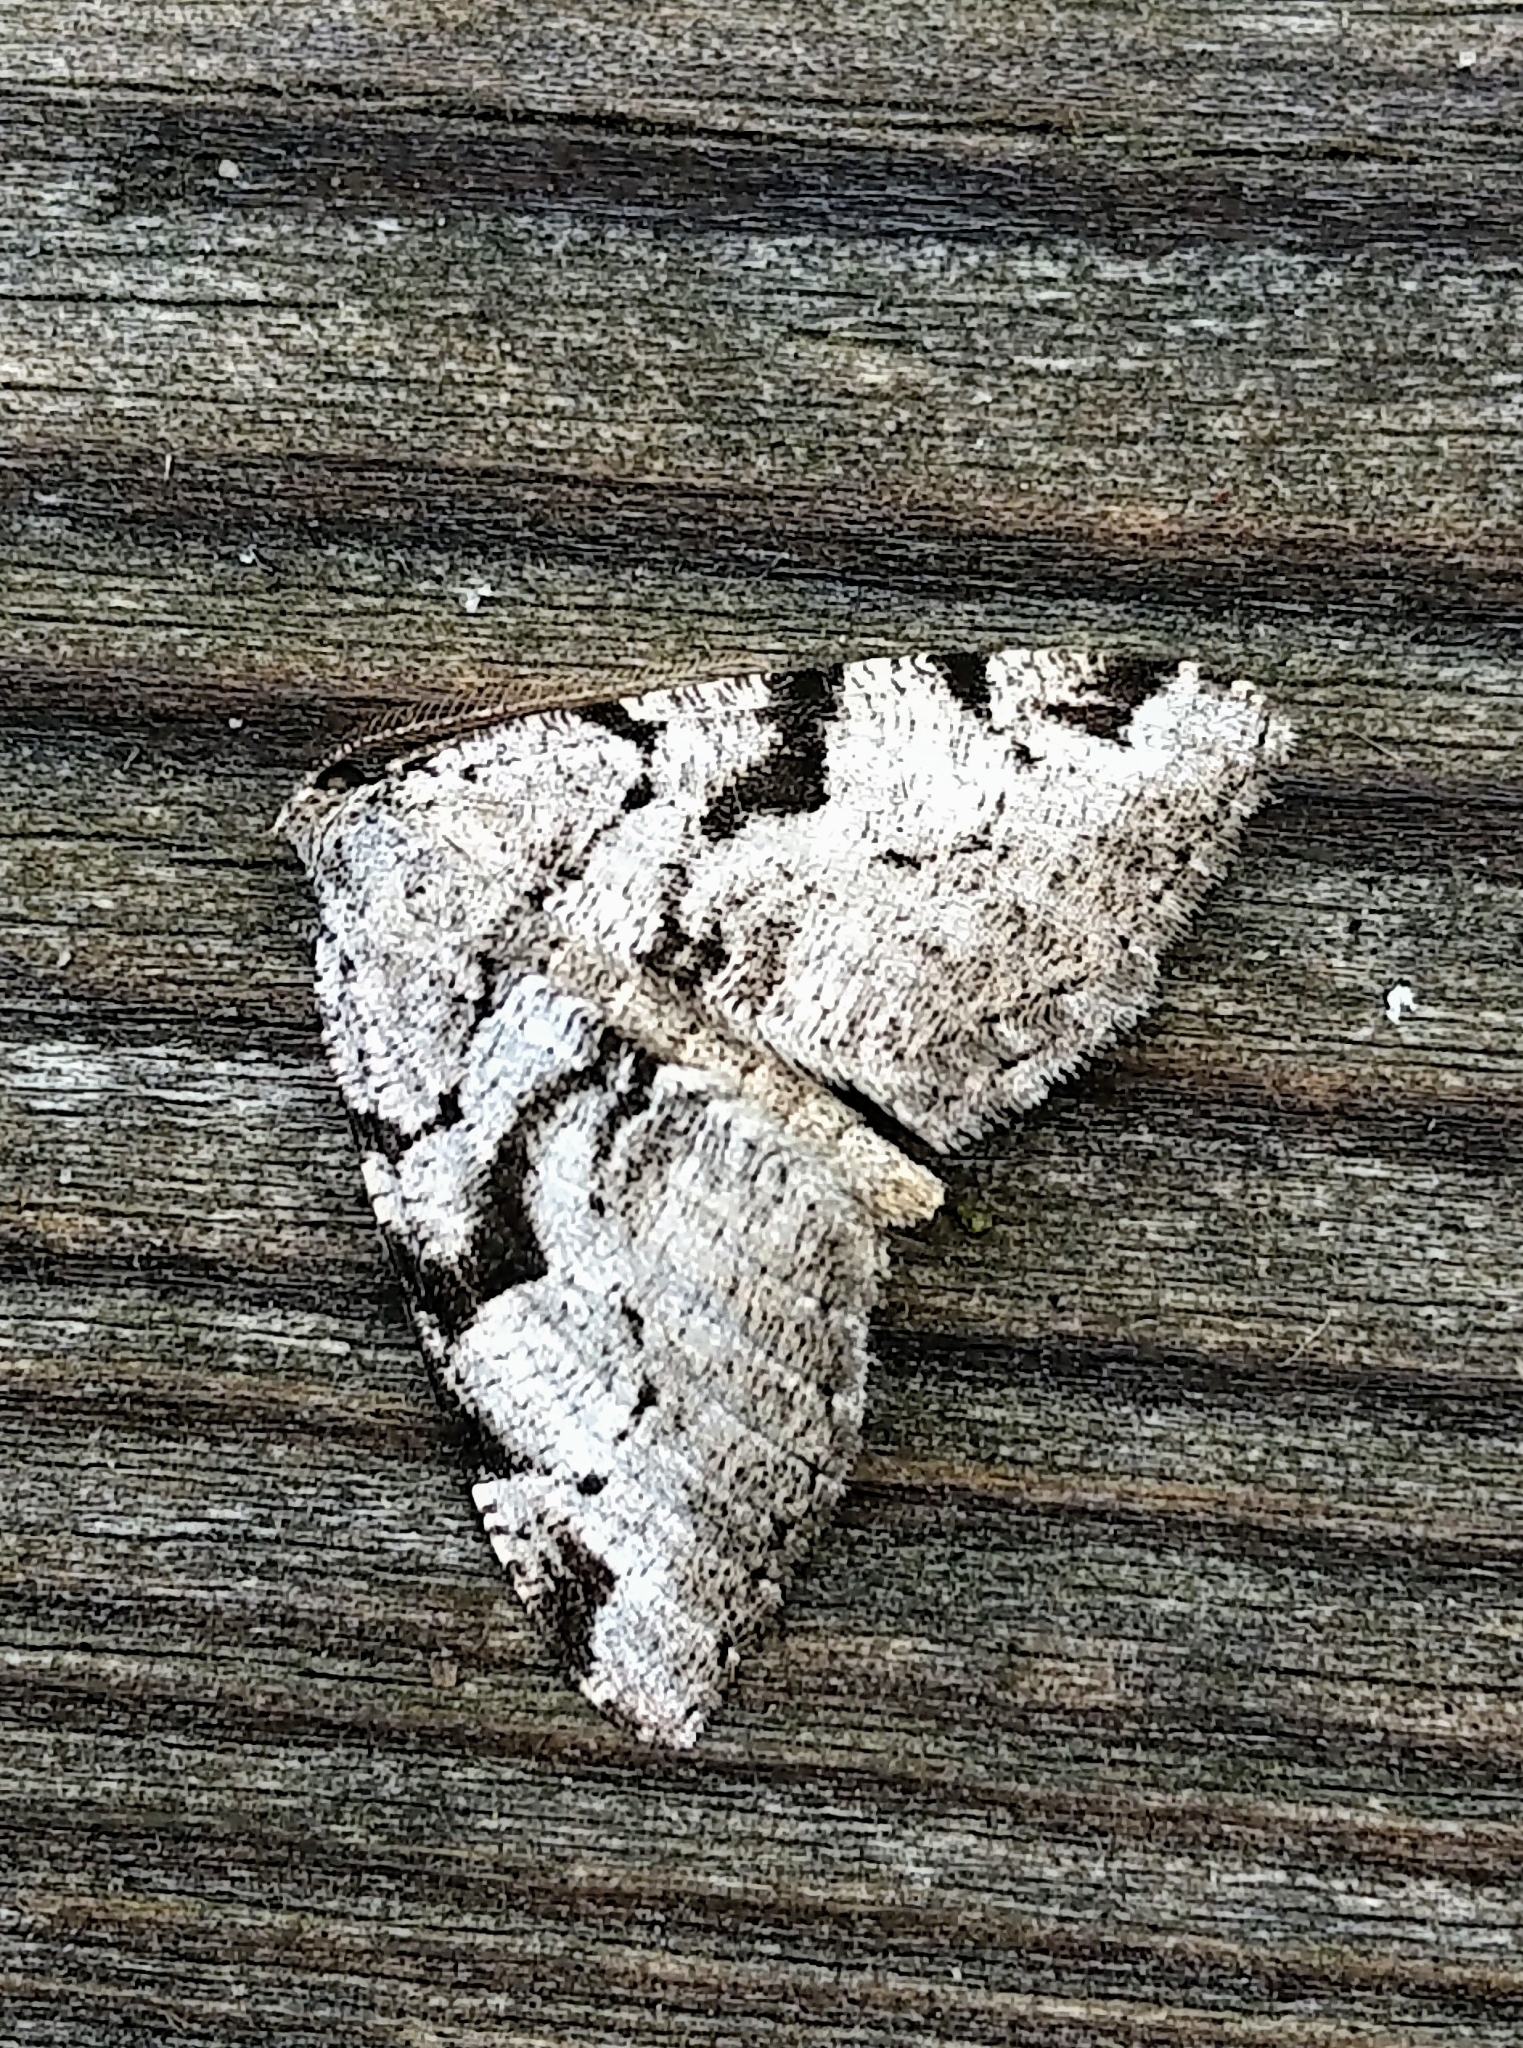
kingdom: Animalia
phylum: Arthropoda
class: Insecta
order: Lepidoptera
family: Geometridae
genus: Macaria
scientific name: Macaria bitactata
